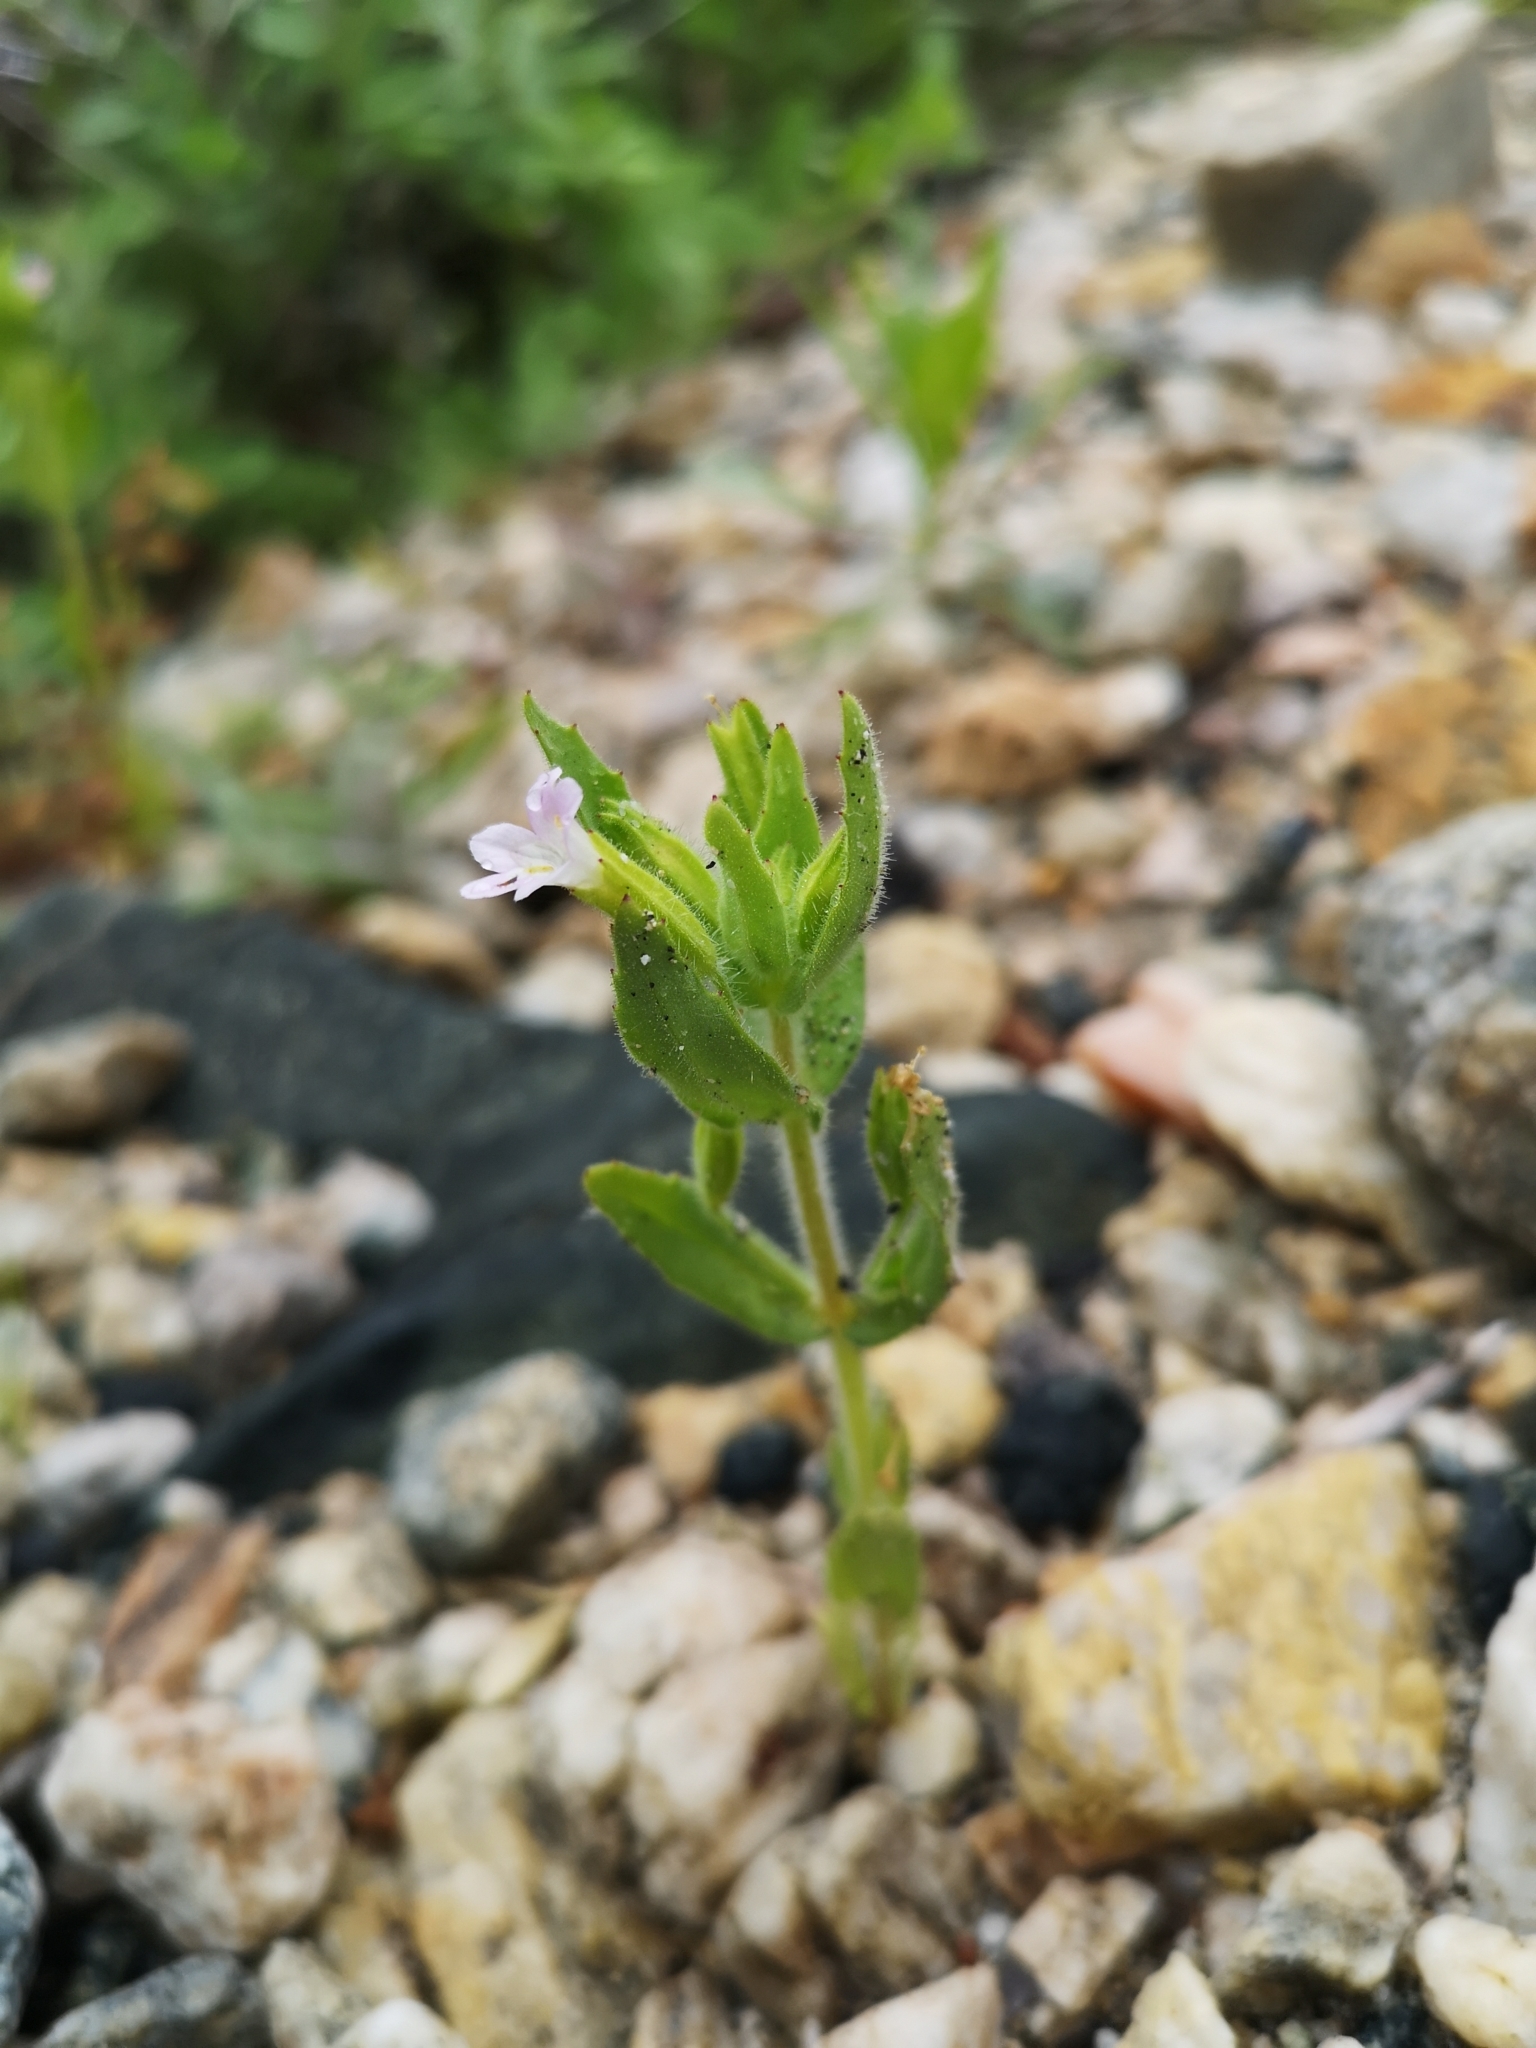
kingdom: Plantae
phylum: Tracheophyta
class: Magnoliopsida
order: Lamiales
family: Phrymaceae
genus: Erythranthe
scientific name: Erythranthe parishii
